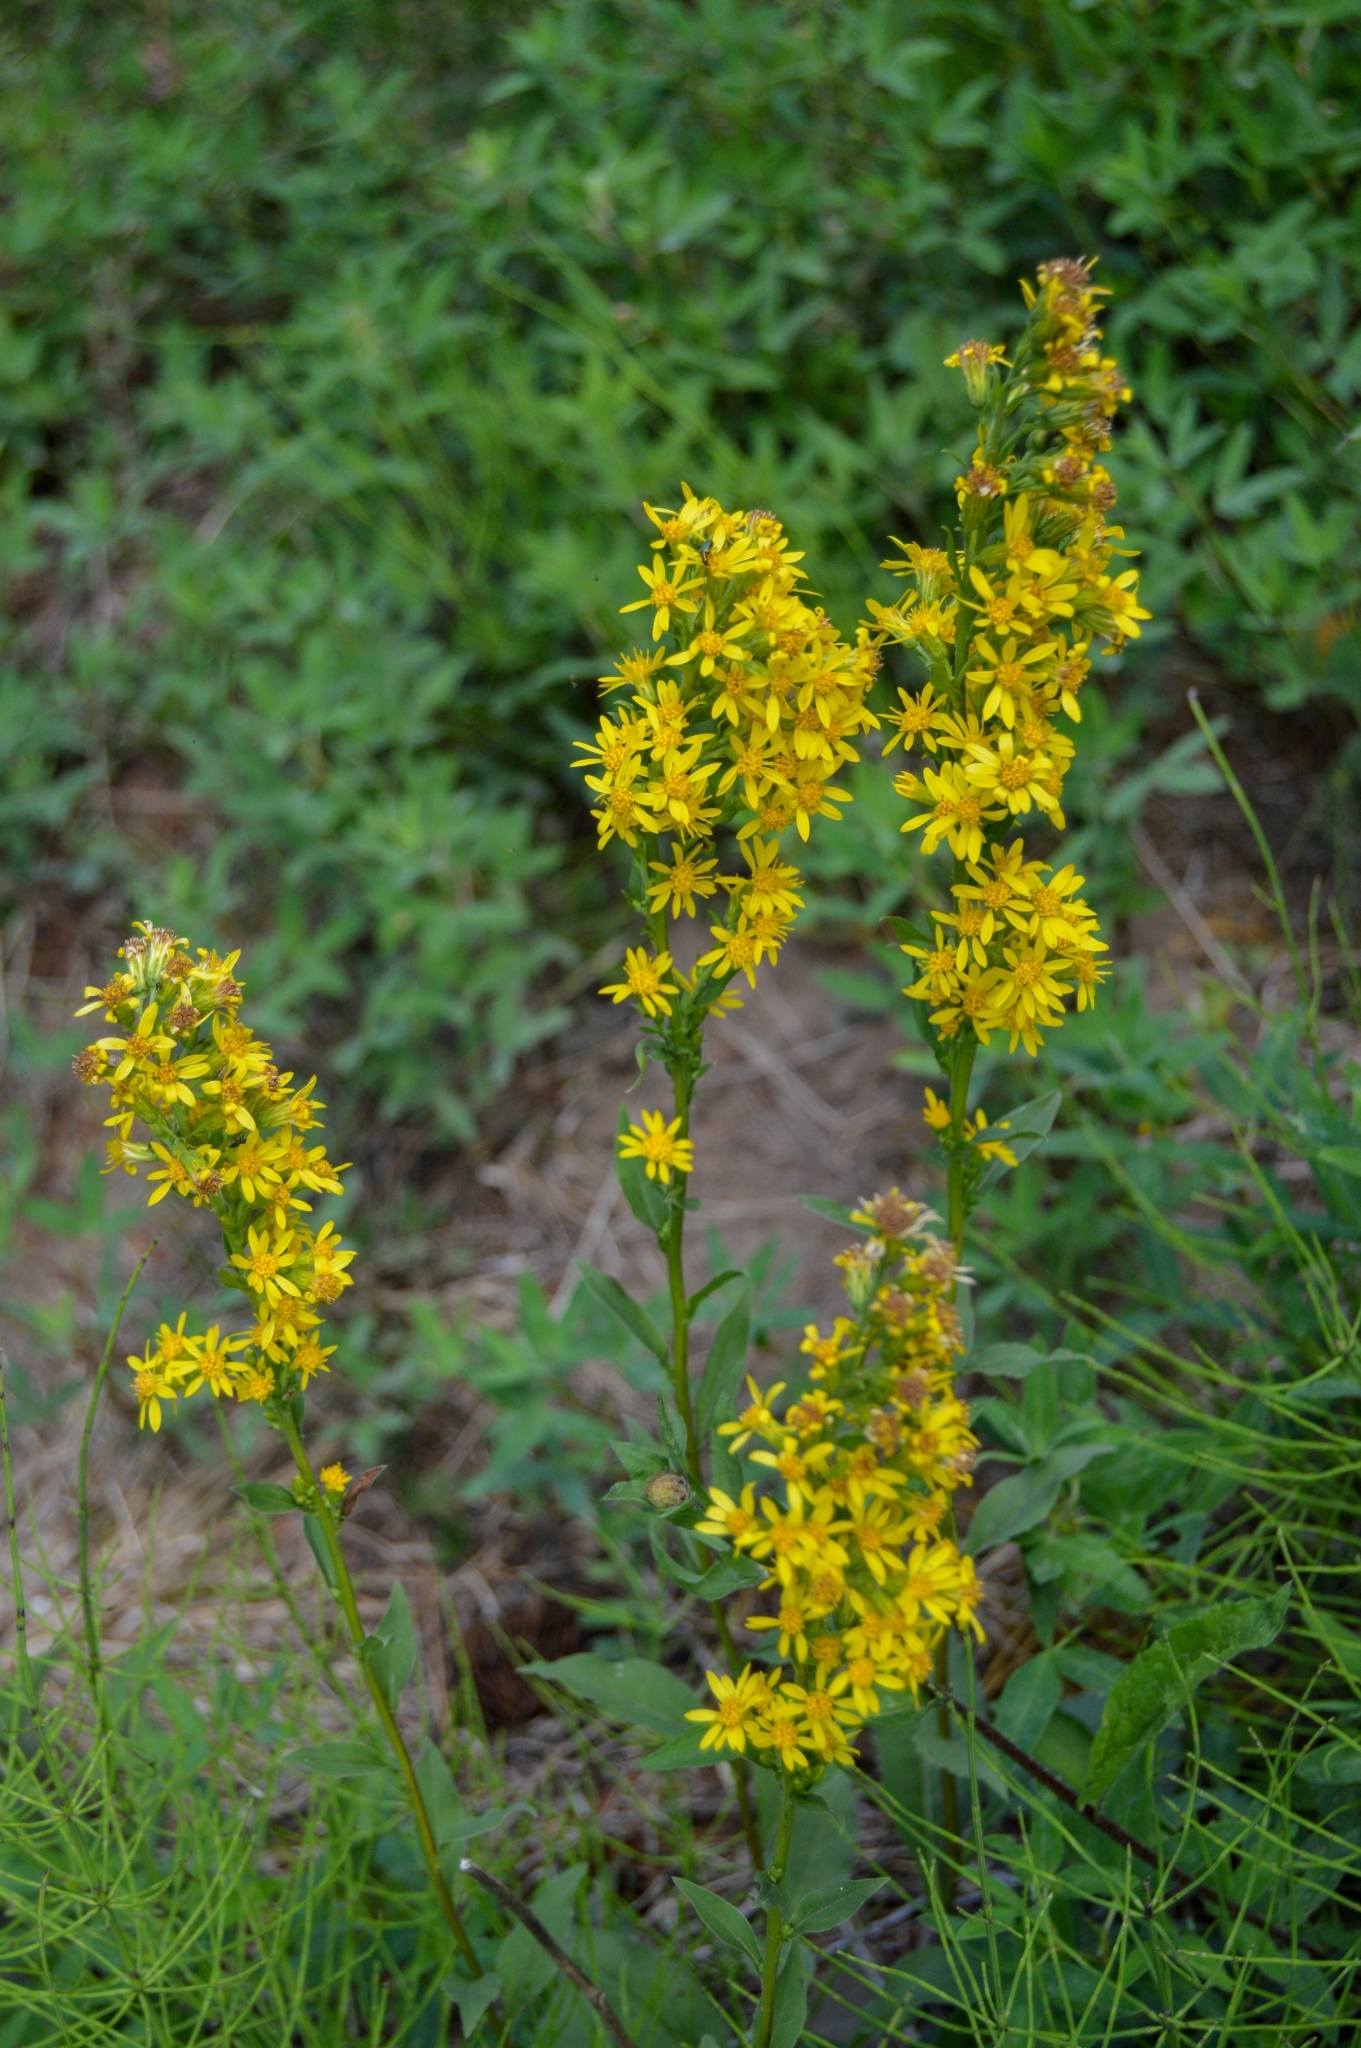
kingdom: Plantae
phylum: Tracheophyta
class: Magnoliopsida
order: Asterales
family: Asteraceae
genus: Solidago
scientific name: Solidago virgaurea
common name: Goldenrod
